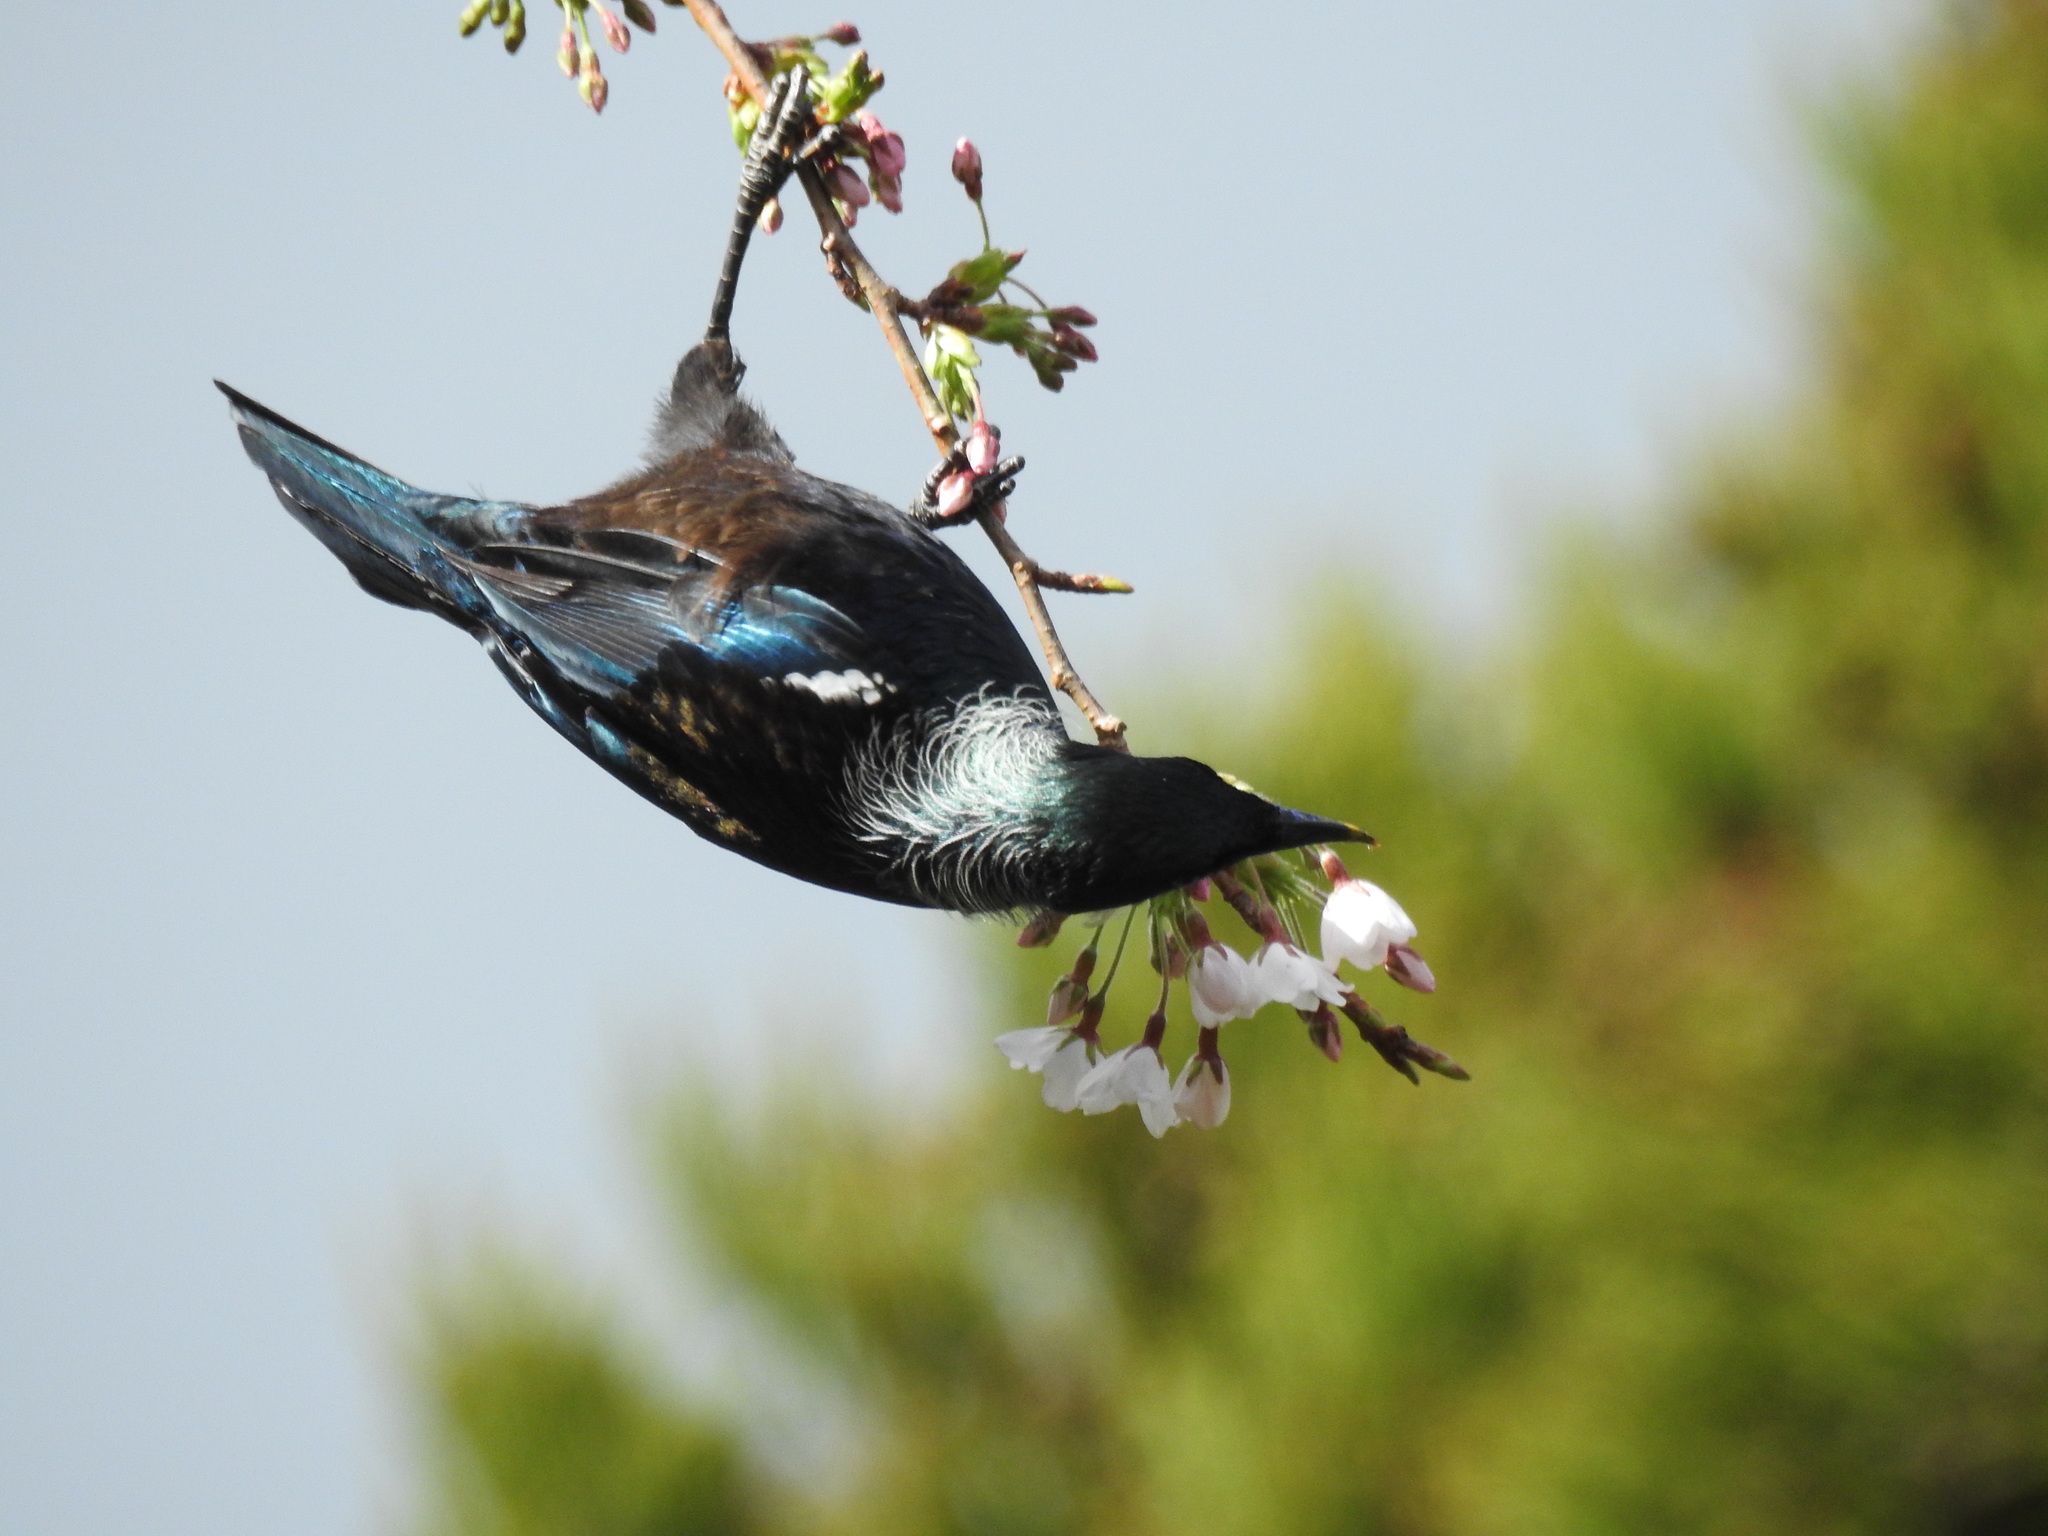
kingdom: Animalia
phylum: Chordata
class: Aves
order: Passeriformes
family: Meliphagidae
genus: Prosthemadera
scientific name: Prosthemadera novaeseelandiae
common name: Tui
